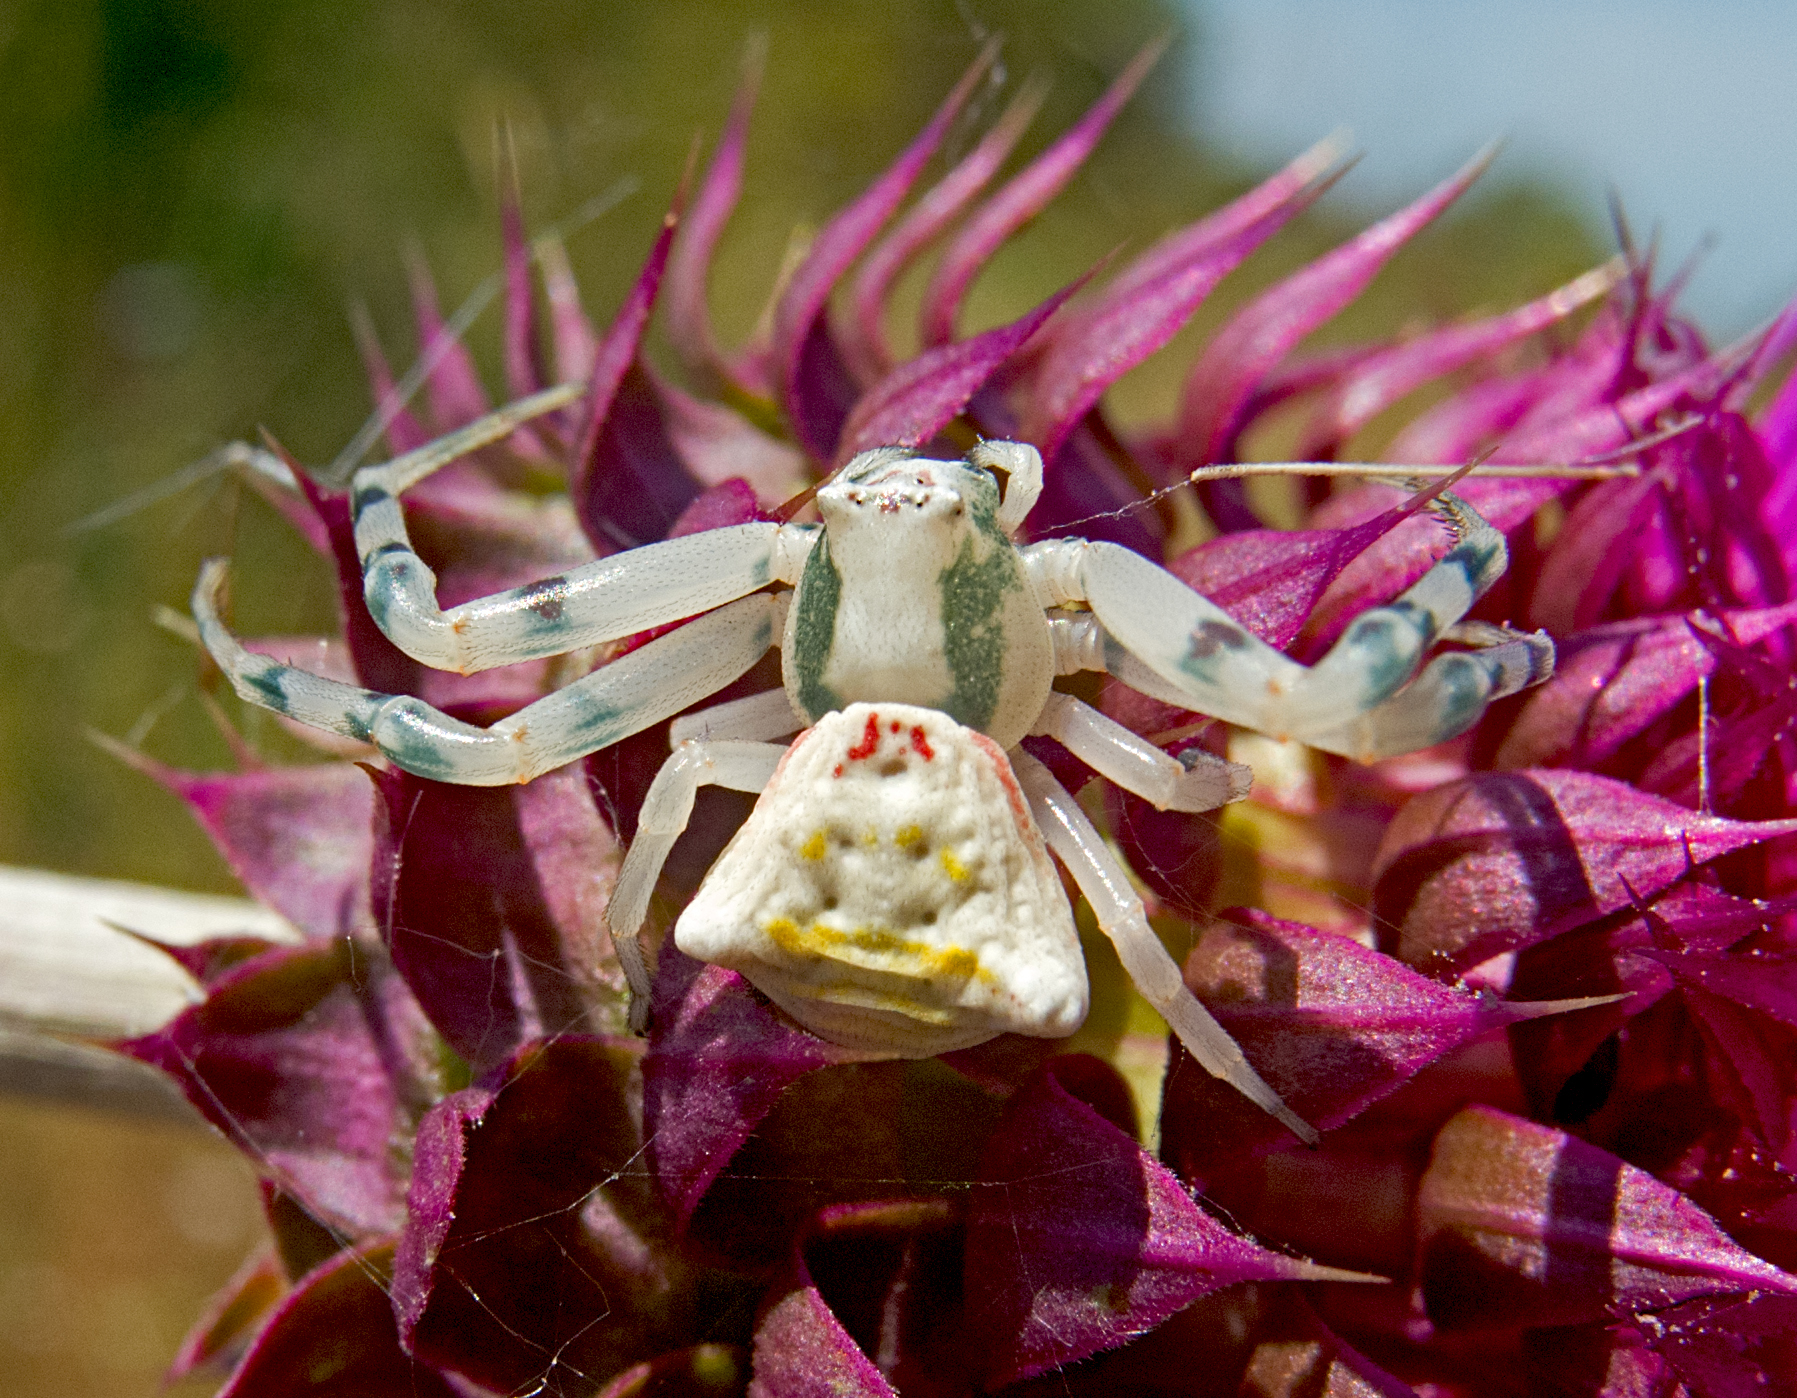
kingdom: Animalia
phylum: Arthropoda
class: Arachnida
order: Araneae
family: Thomisidae
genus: Thomisus
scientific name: Thomisus onustus
